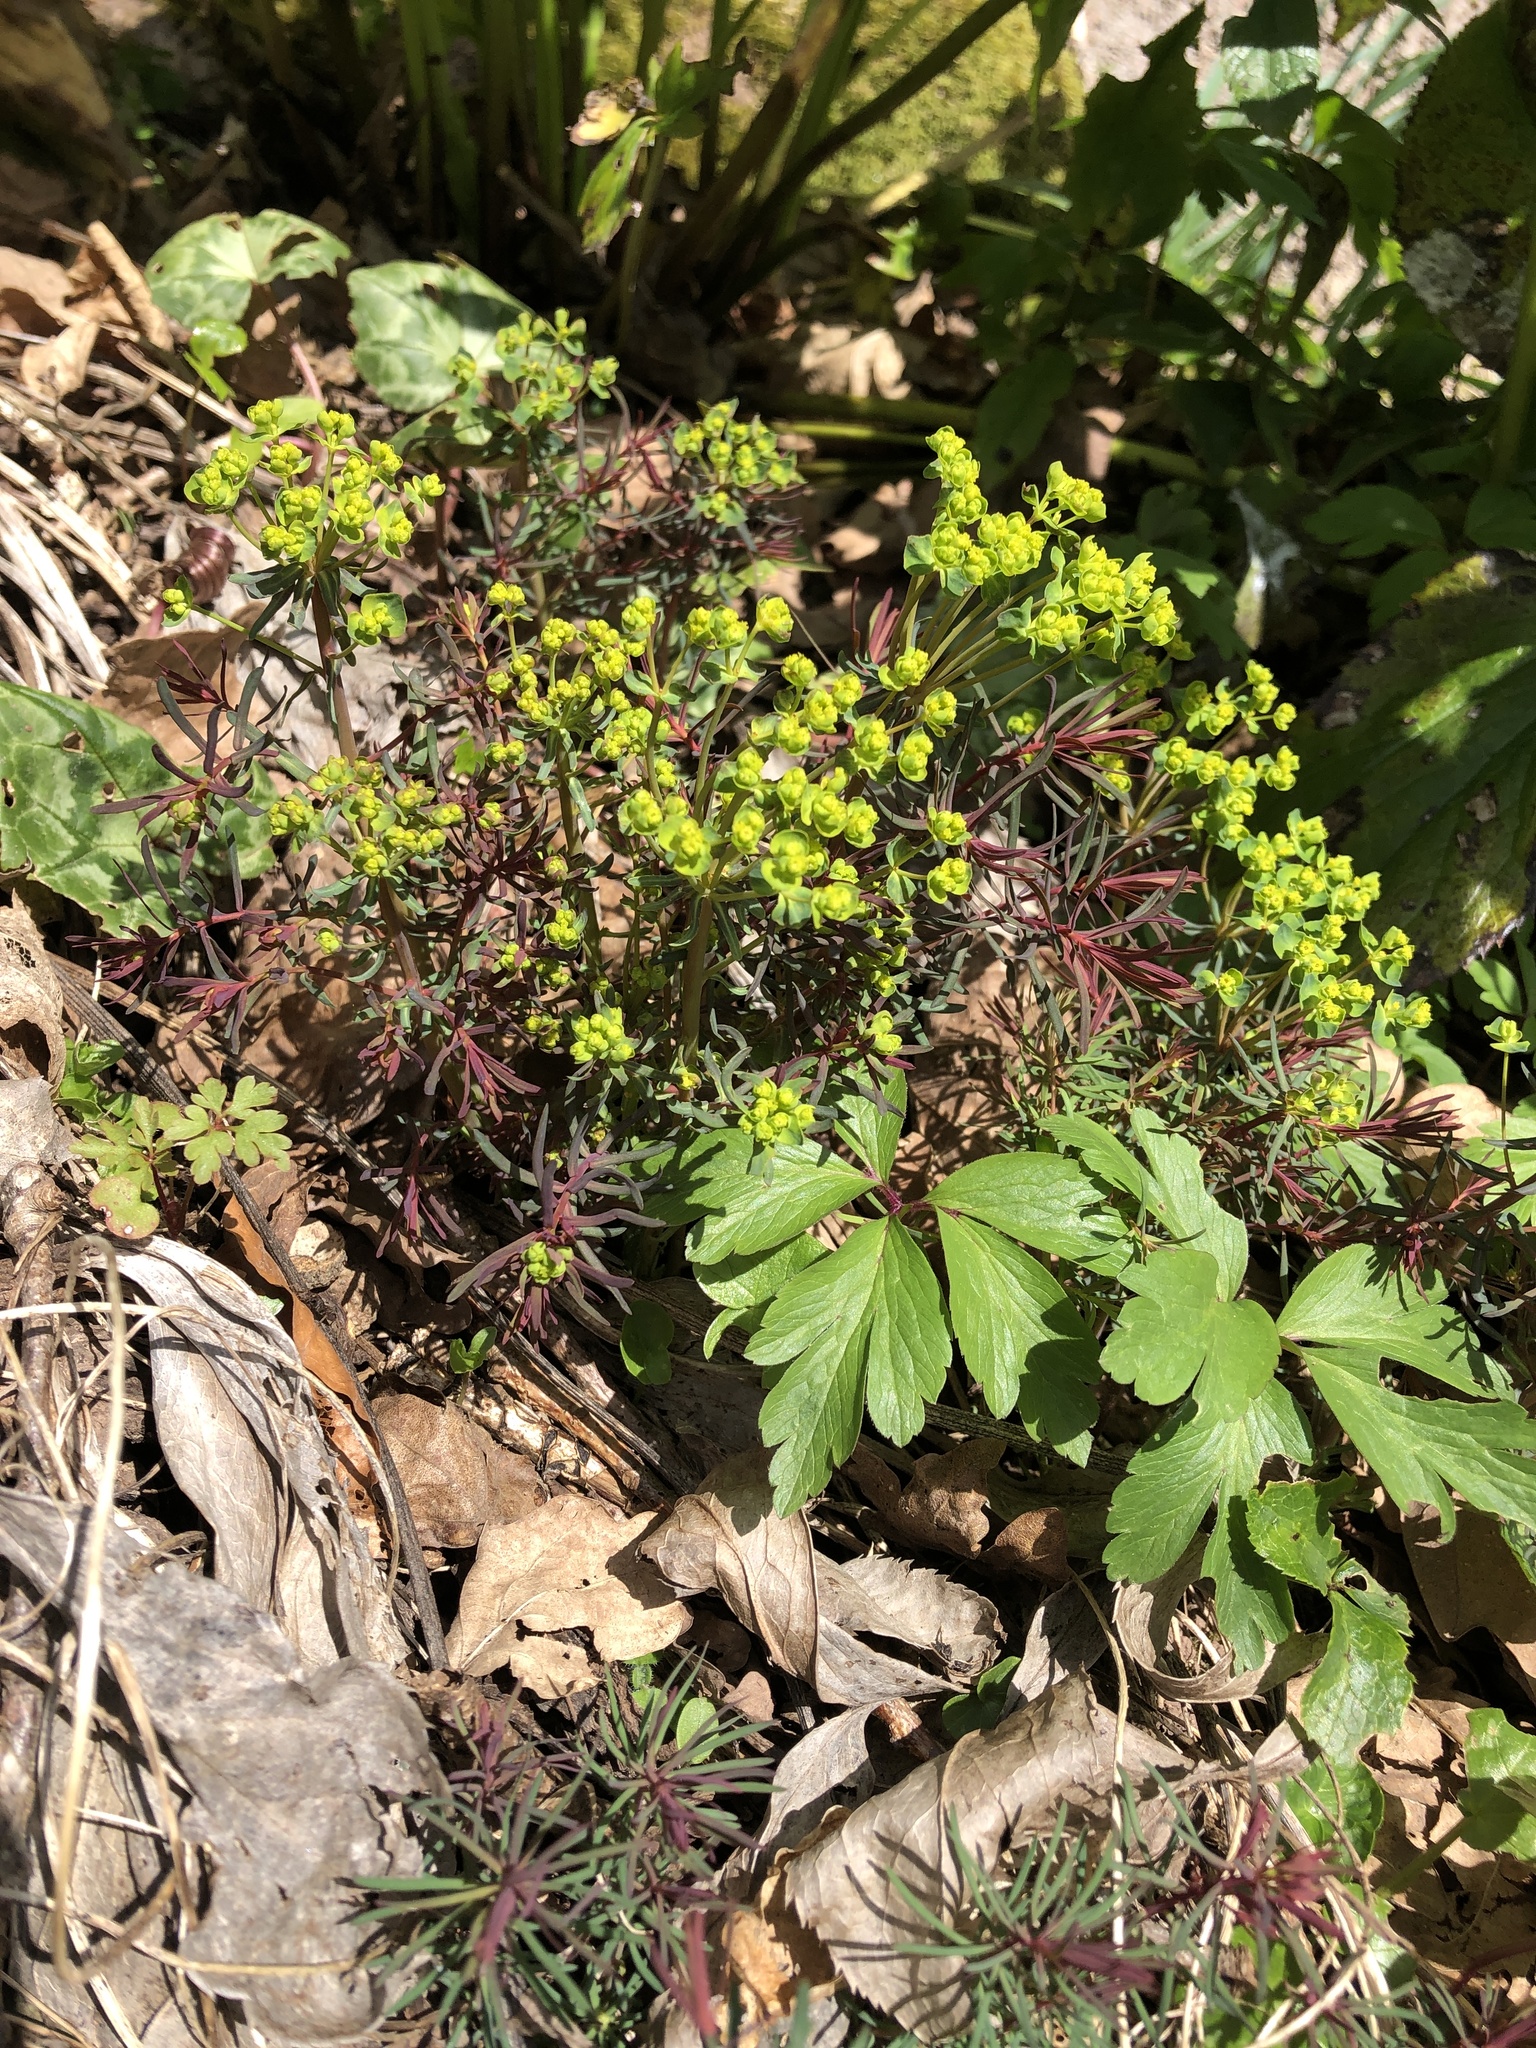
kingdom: Plantae
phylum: Tracheophyta
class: Magnoliopsida
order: Malpighiales
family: Euphorbiaceae
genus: Euphorbia
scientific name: Euphorbia cyparissias
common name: Cypress spurge
